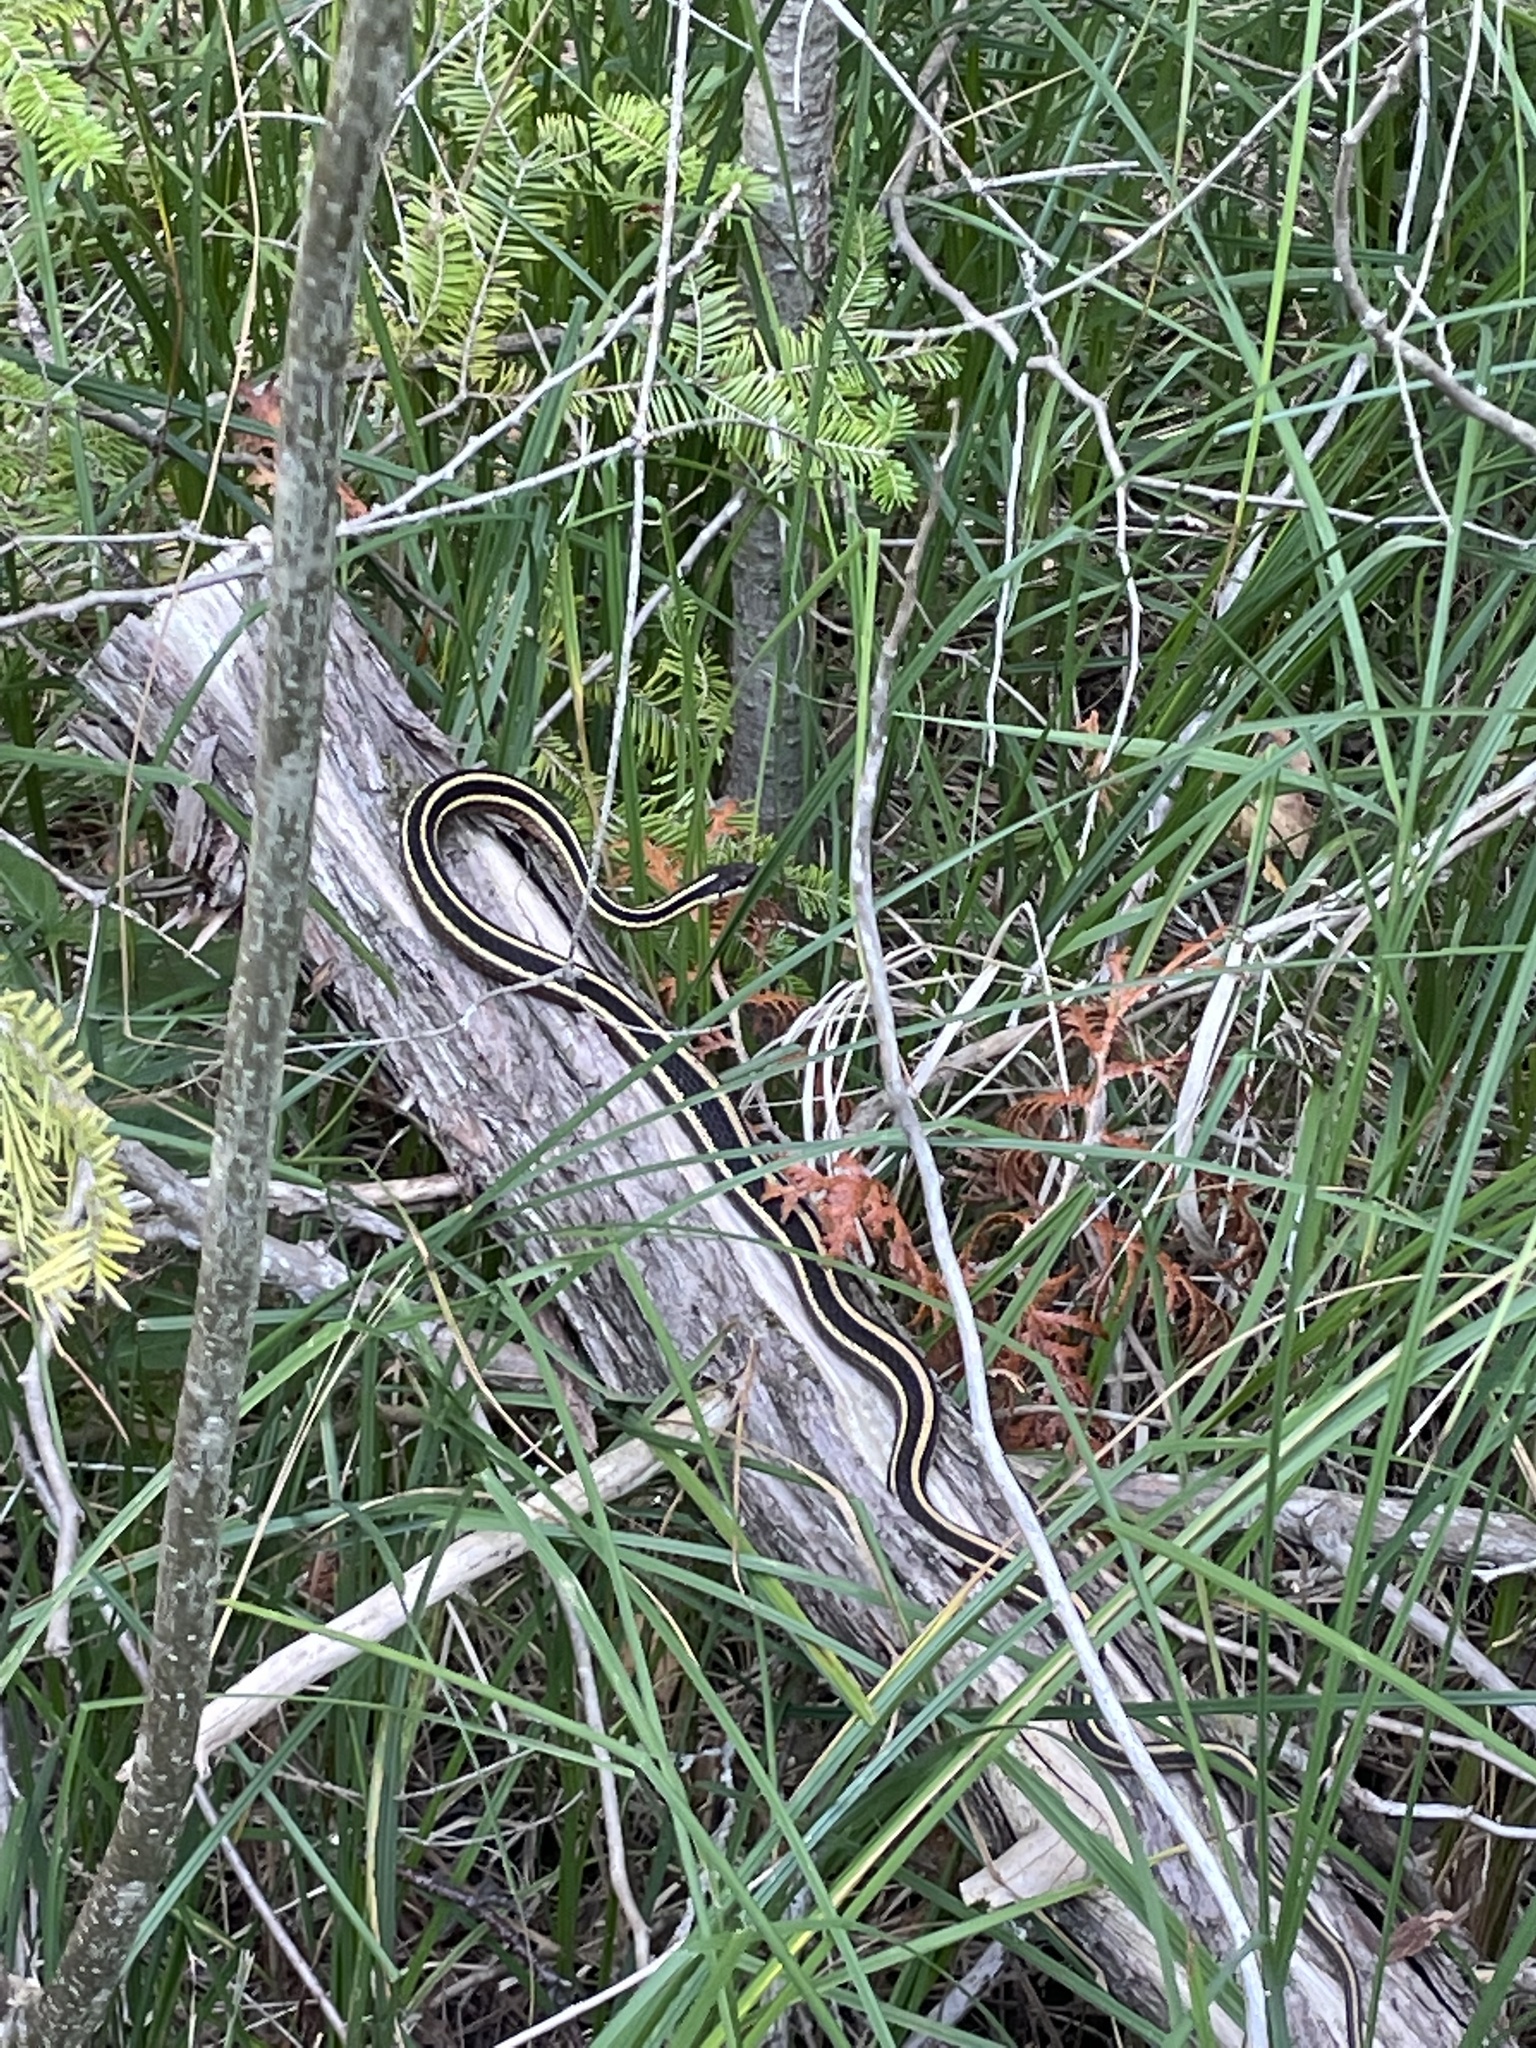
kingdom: Animalia
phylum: Chordata
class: Squamata
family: Colubridae
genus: Thamnophis
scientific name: Thamnophis saurita
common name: Eastern ribbonsnake
